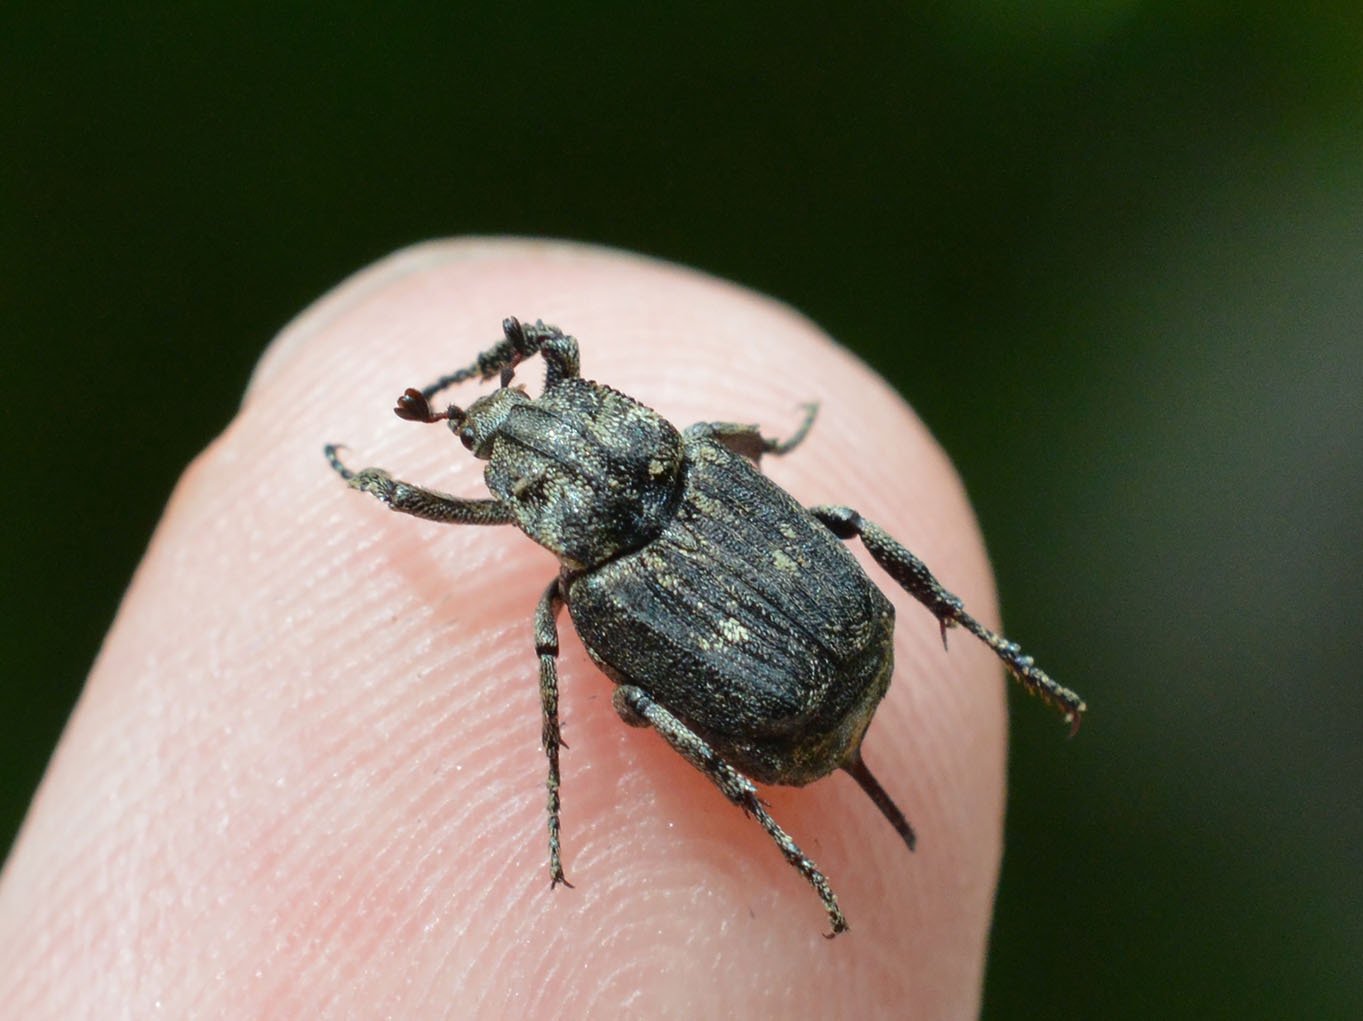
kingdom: Animalia
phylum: Arthropoda
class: Insecta
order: Coleoptera
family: Scarabaeidae
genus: Valgus
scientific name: Valgus hemipterus
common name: Bug flower chafer
